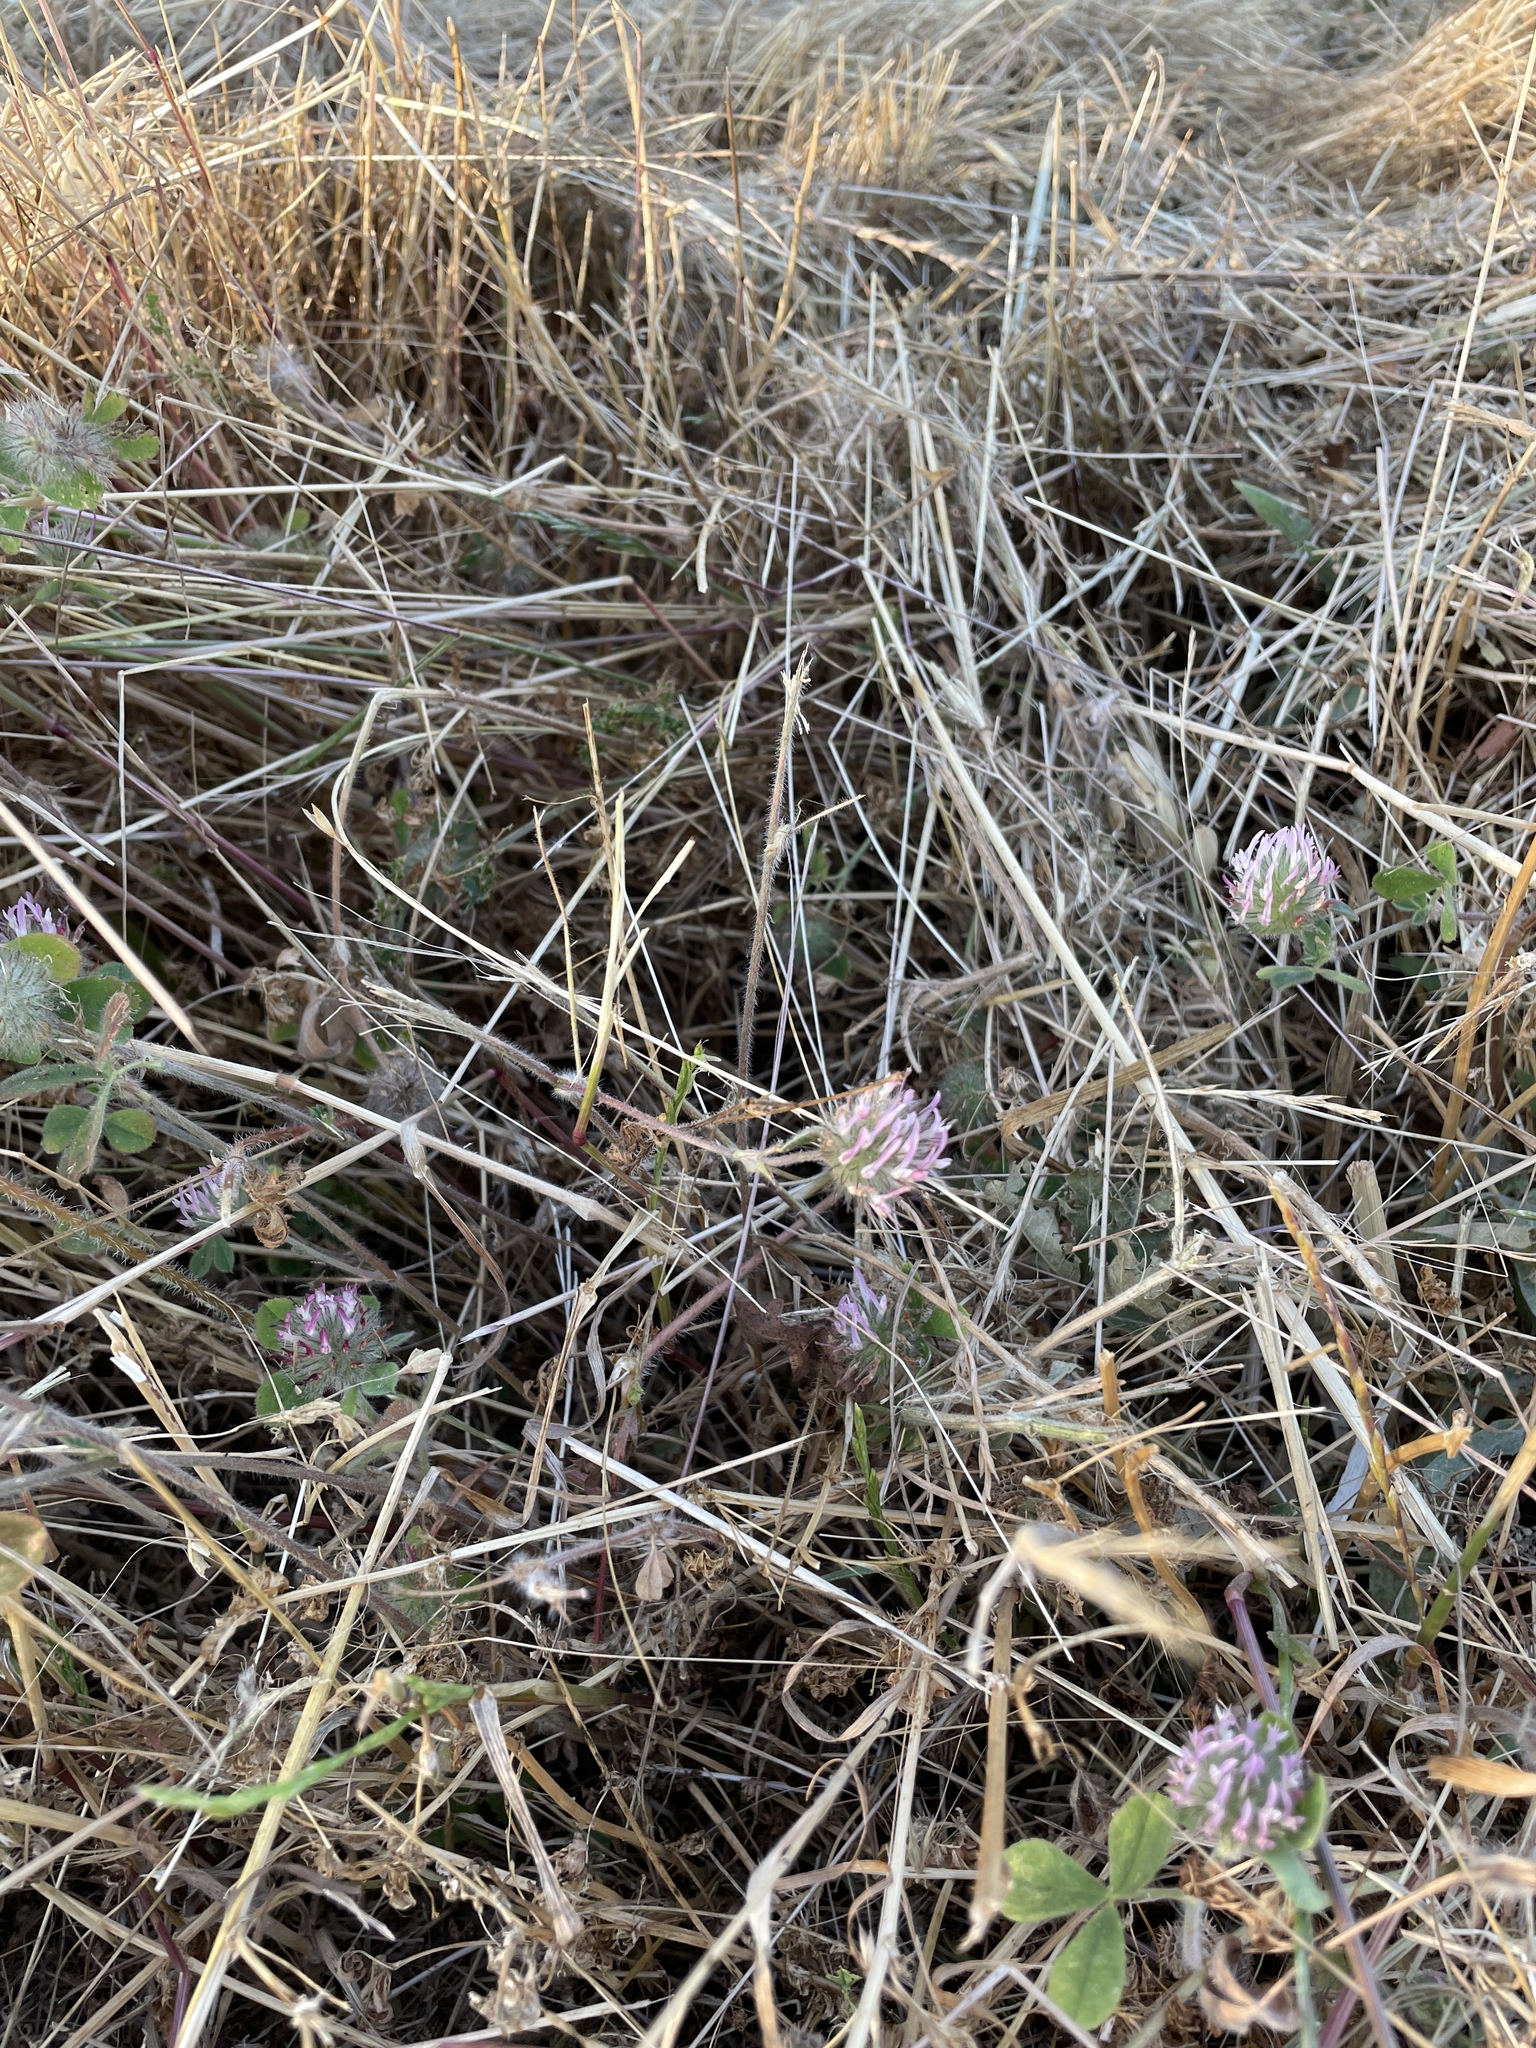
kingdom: Plantae
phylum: Tracheophyta
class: Magnoliopsida
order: Fabales
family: Fabaceae
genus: Trifolium
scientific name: Trifolium hirtum
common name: Rose clover
